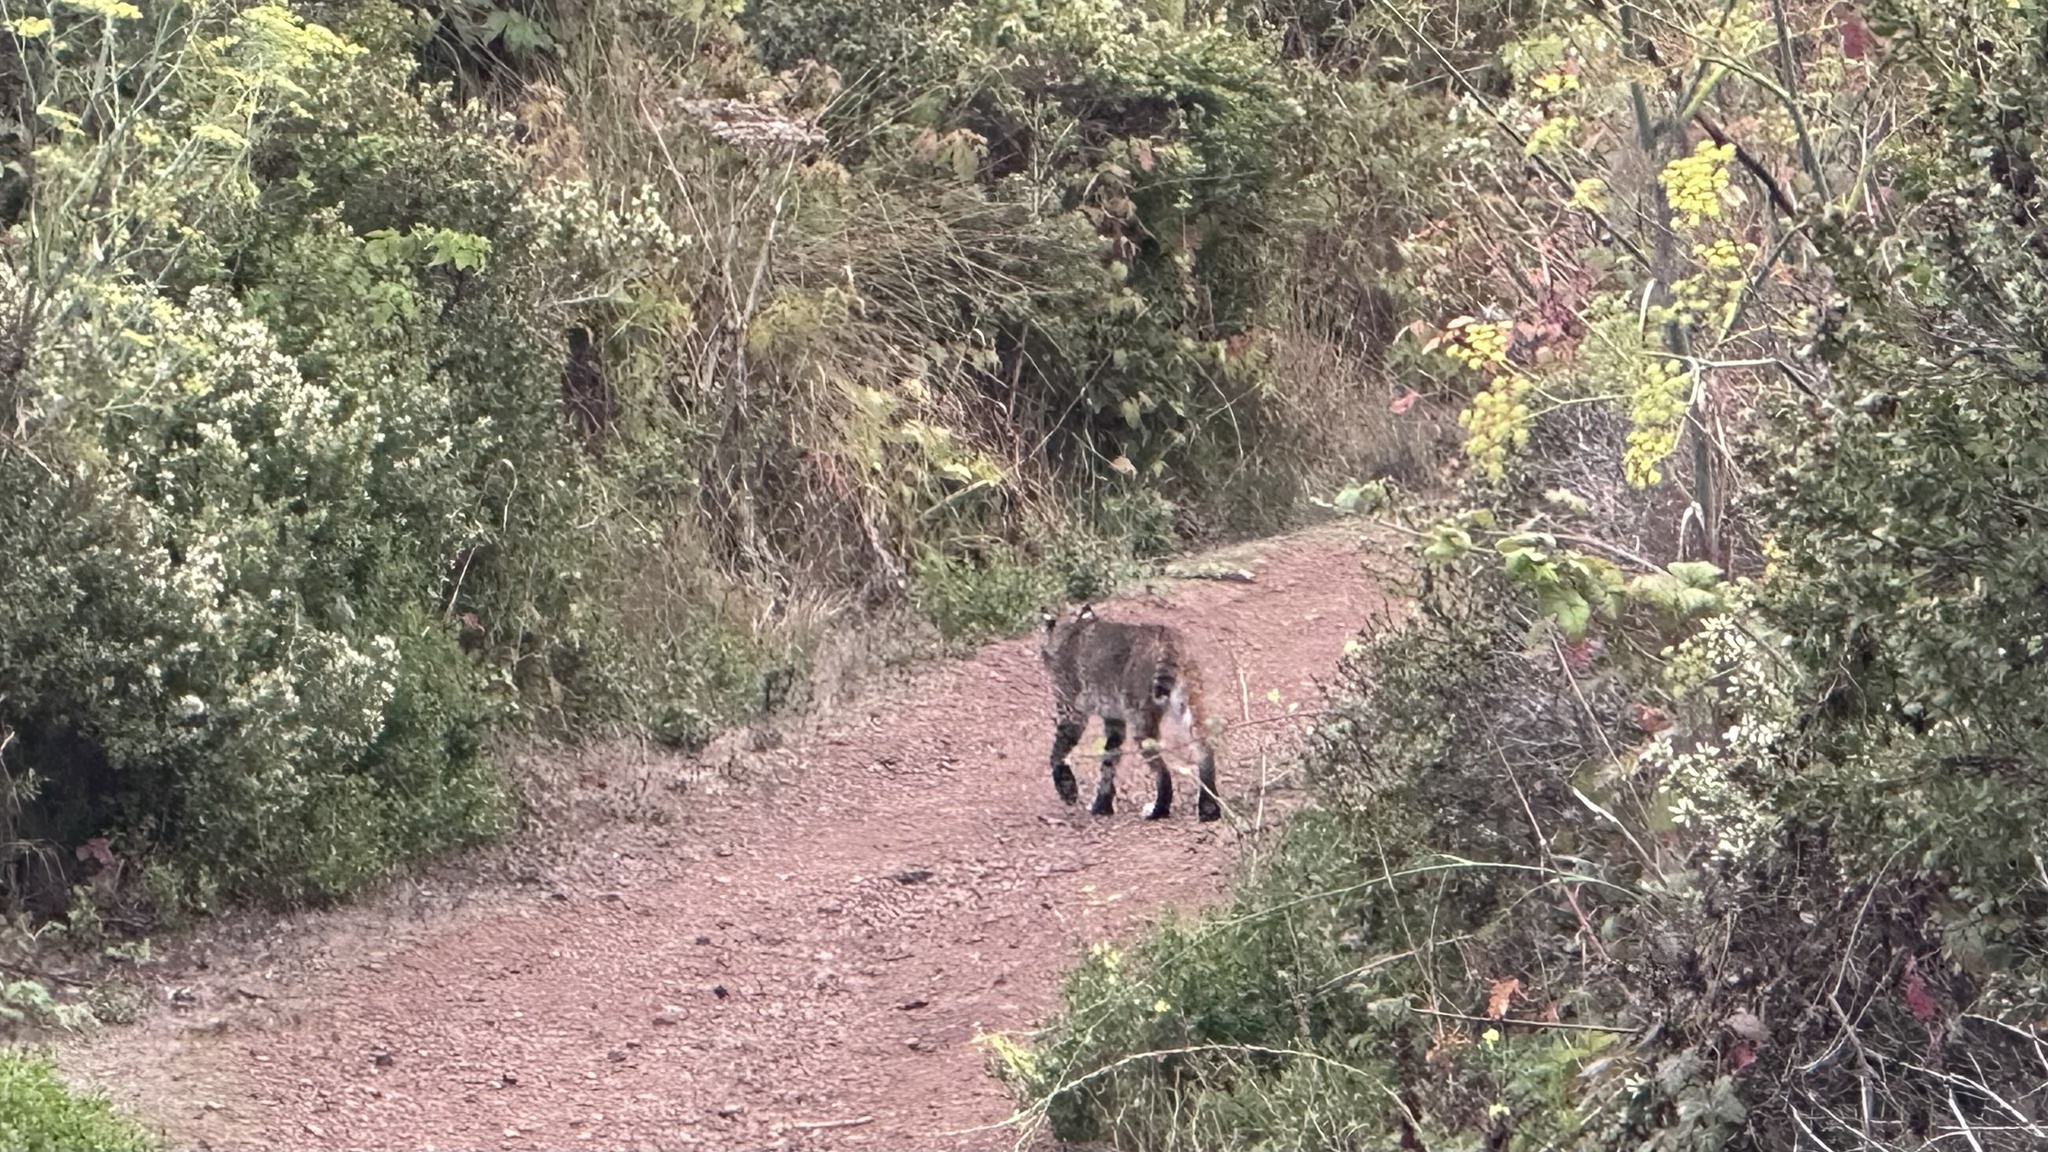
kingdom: Animalia
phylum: Chordata
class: Mammalia
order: Carnivora
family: Felidae
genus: Lynx
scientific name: Lynx rufus
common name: Bobcat
